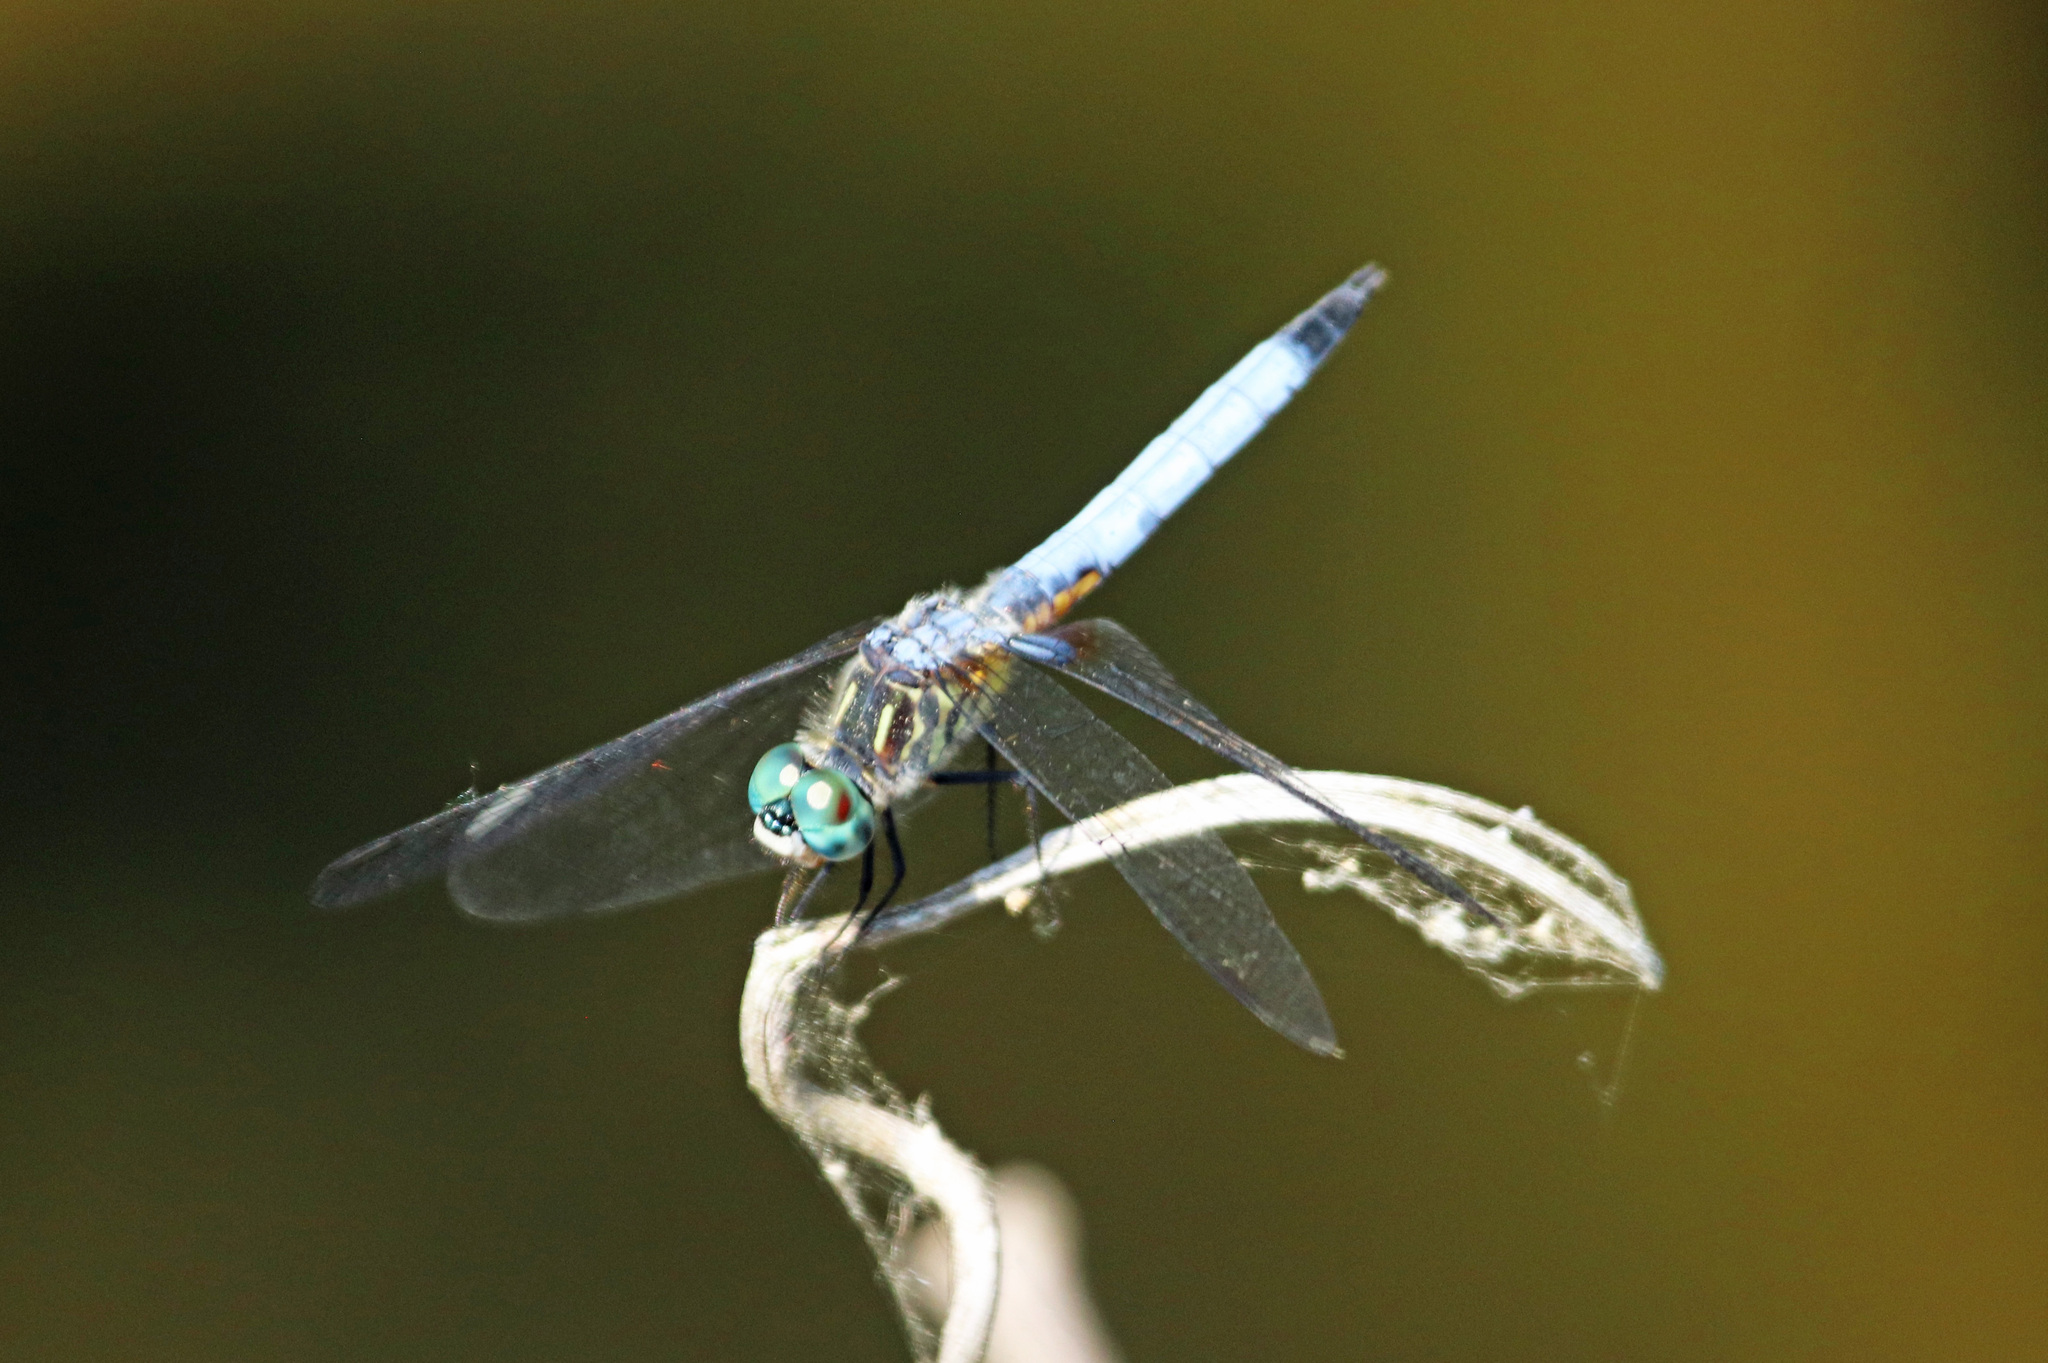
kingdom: Animalia
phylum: Arthropoda
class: Insecta
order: Odonata
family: Libellulidae
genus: Pachydiplax
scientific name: Pachydiplax longipennis
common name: Blue dasher
